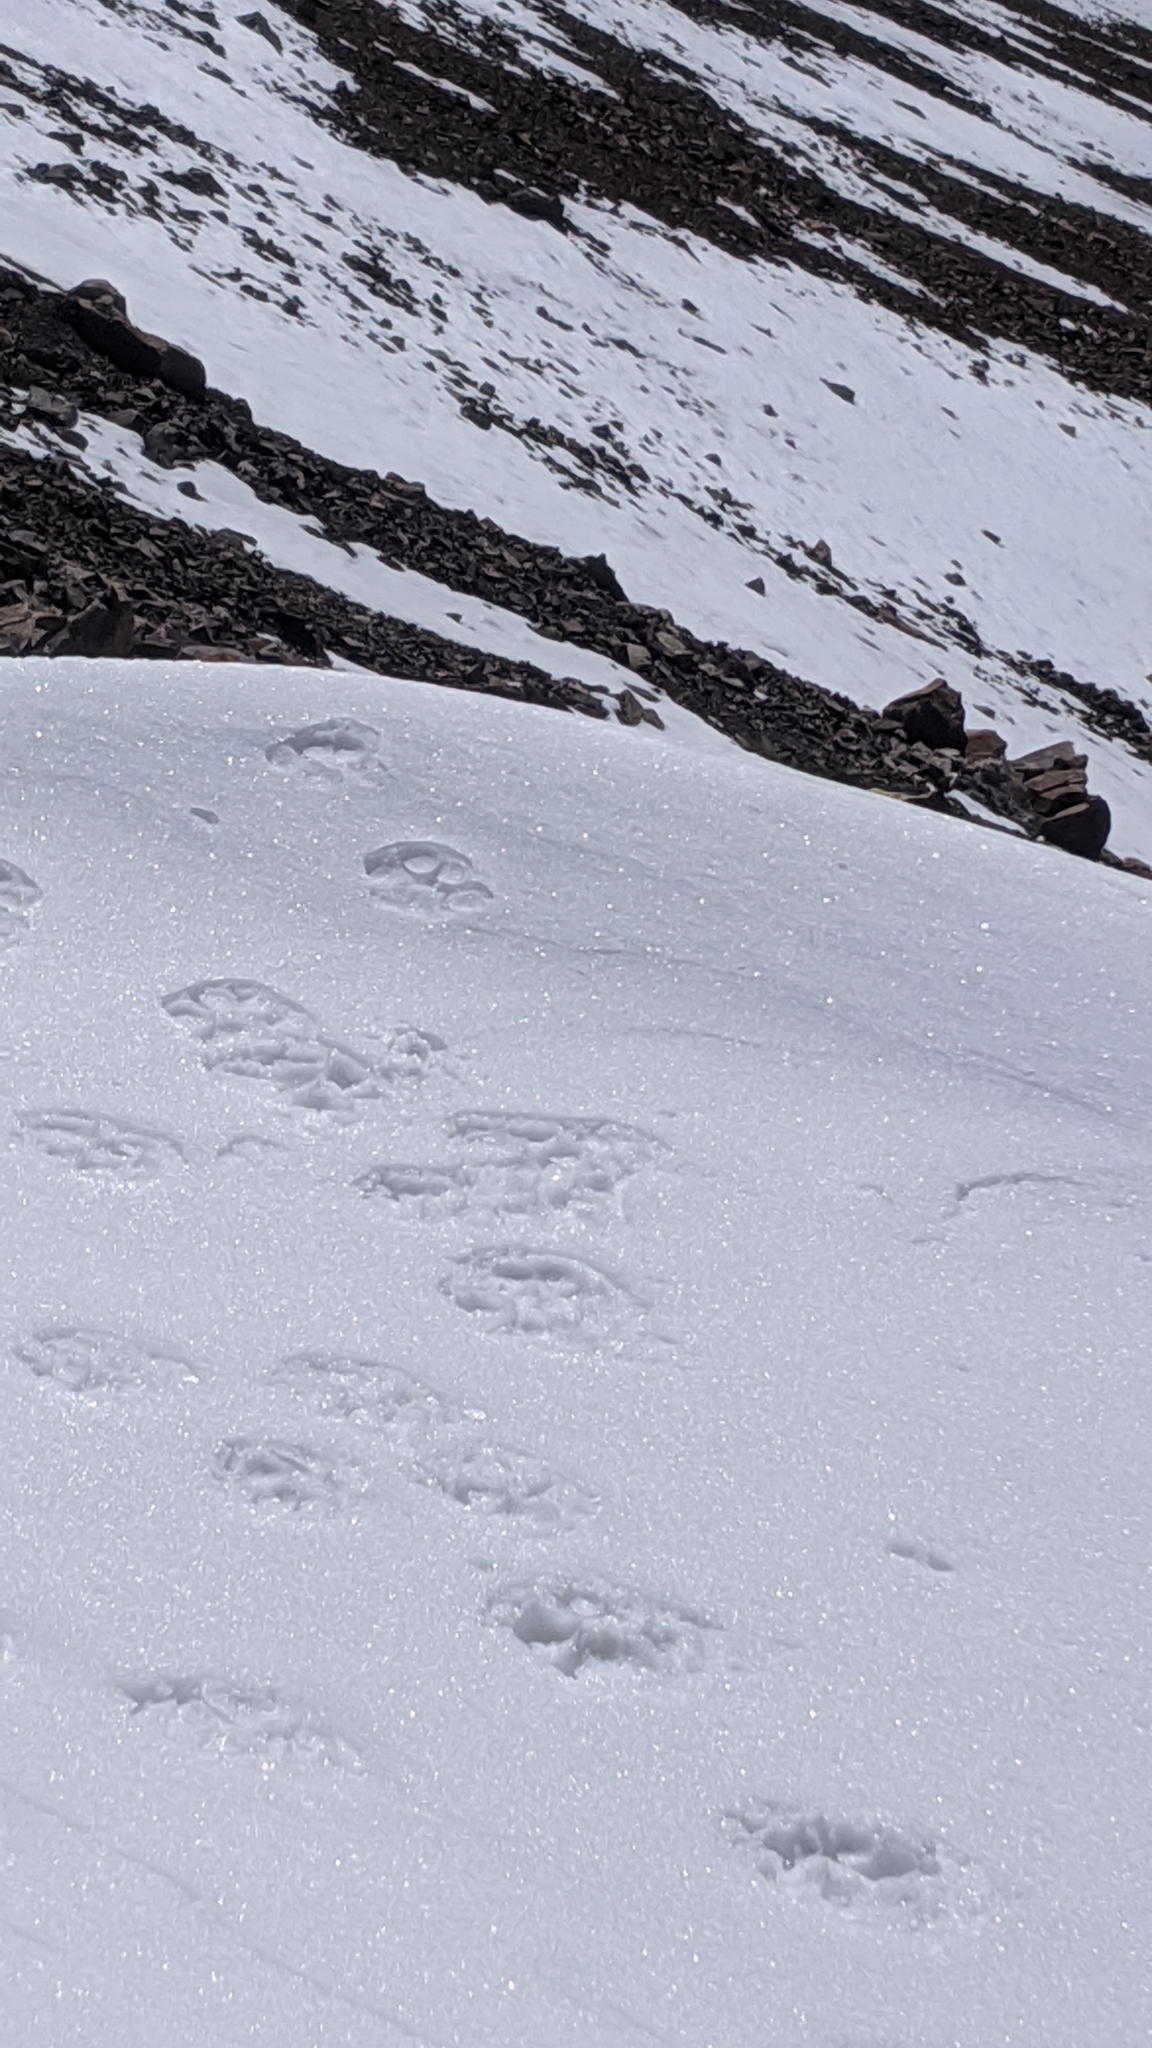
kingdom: Animalia
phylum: Chordata
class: Mammalia
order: Carnivora
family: Felidae
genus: Puma
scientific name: Puma concolor
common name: Puma
